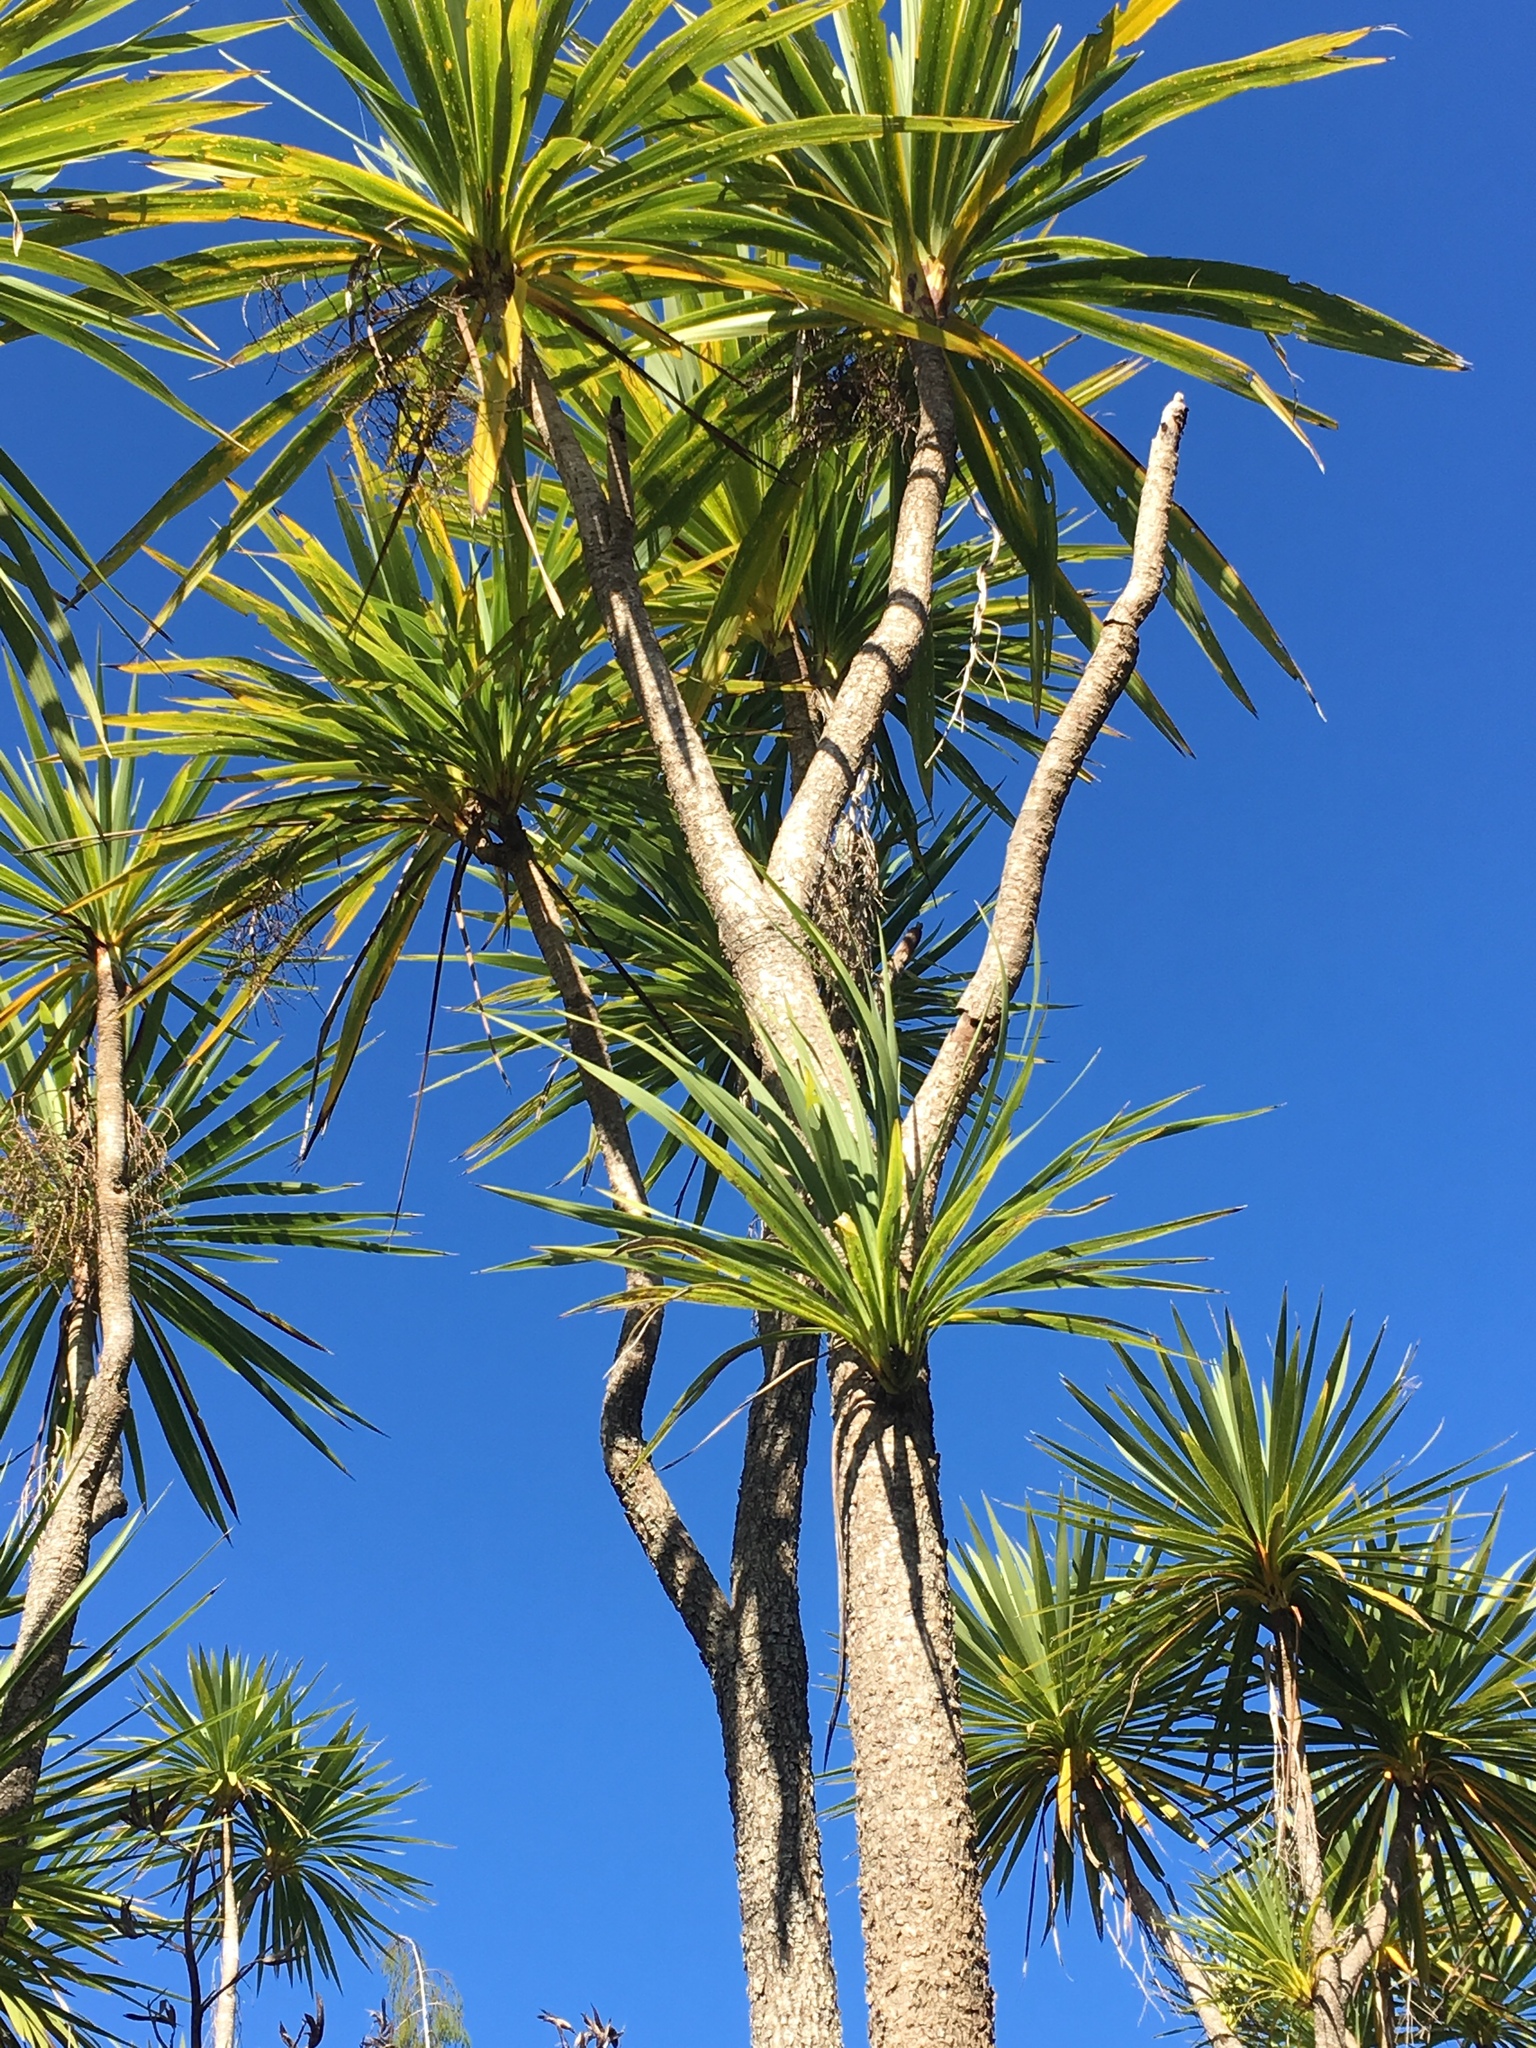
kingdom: Plantae
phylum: Tracheophyta
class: Liliopsida
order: Asparagales
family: Asparagaceae
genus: Cordyline
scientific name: Cordyline australis
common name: Cabbage-palm
